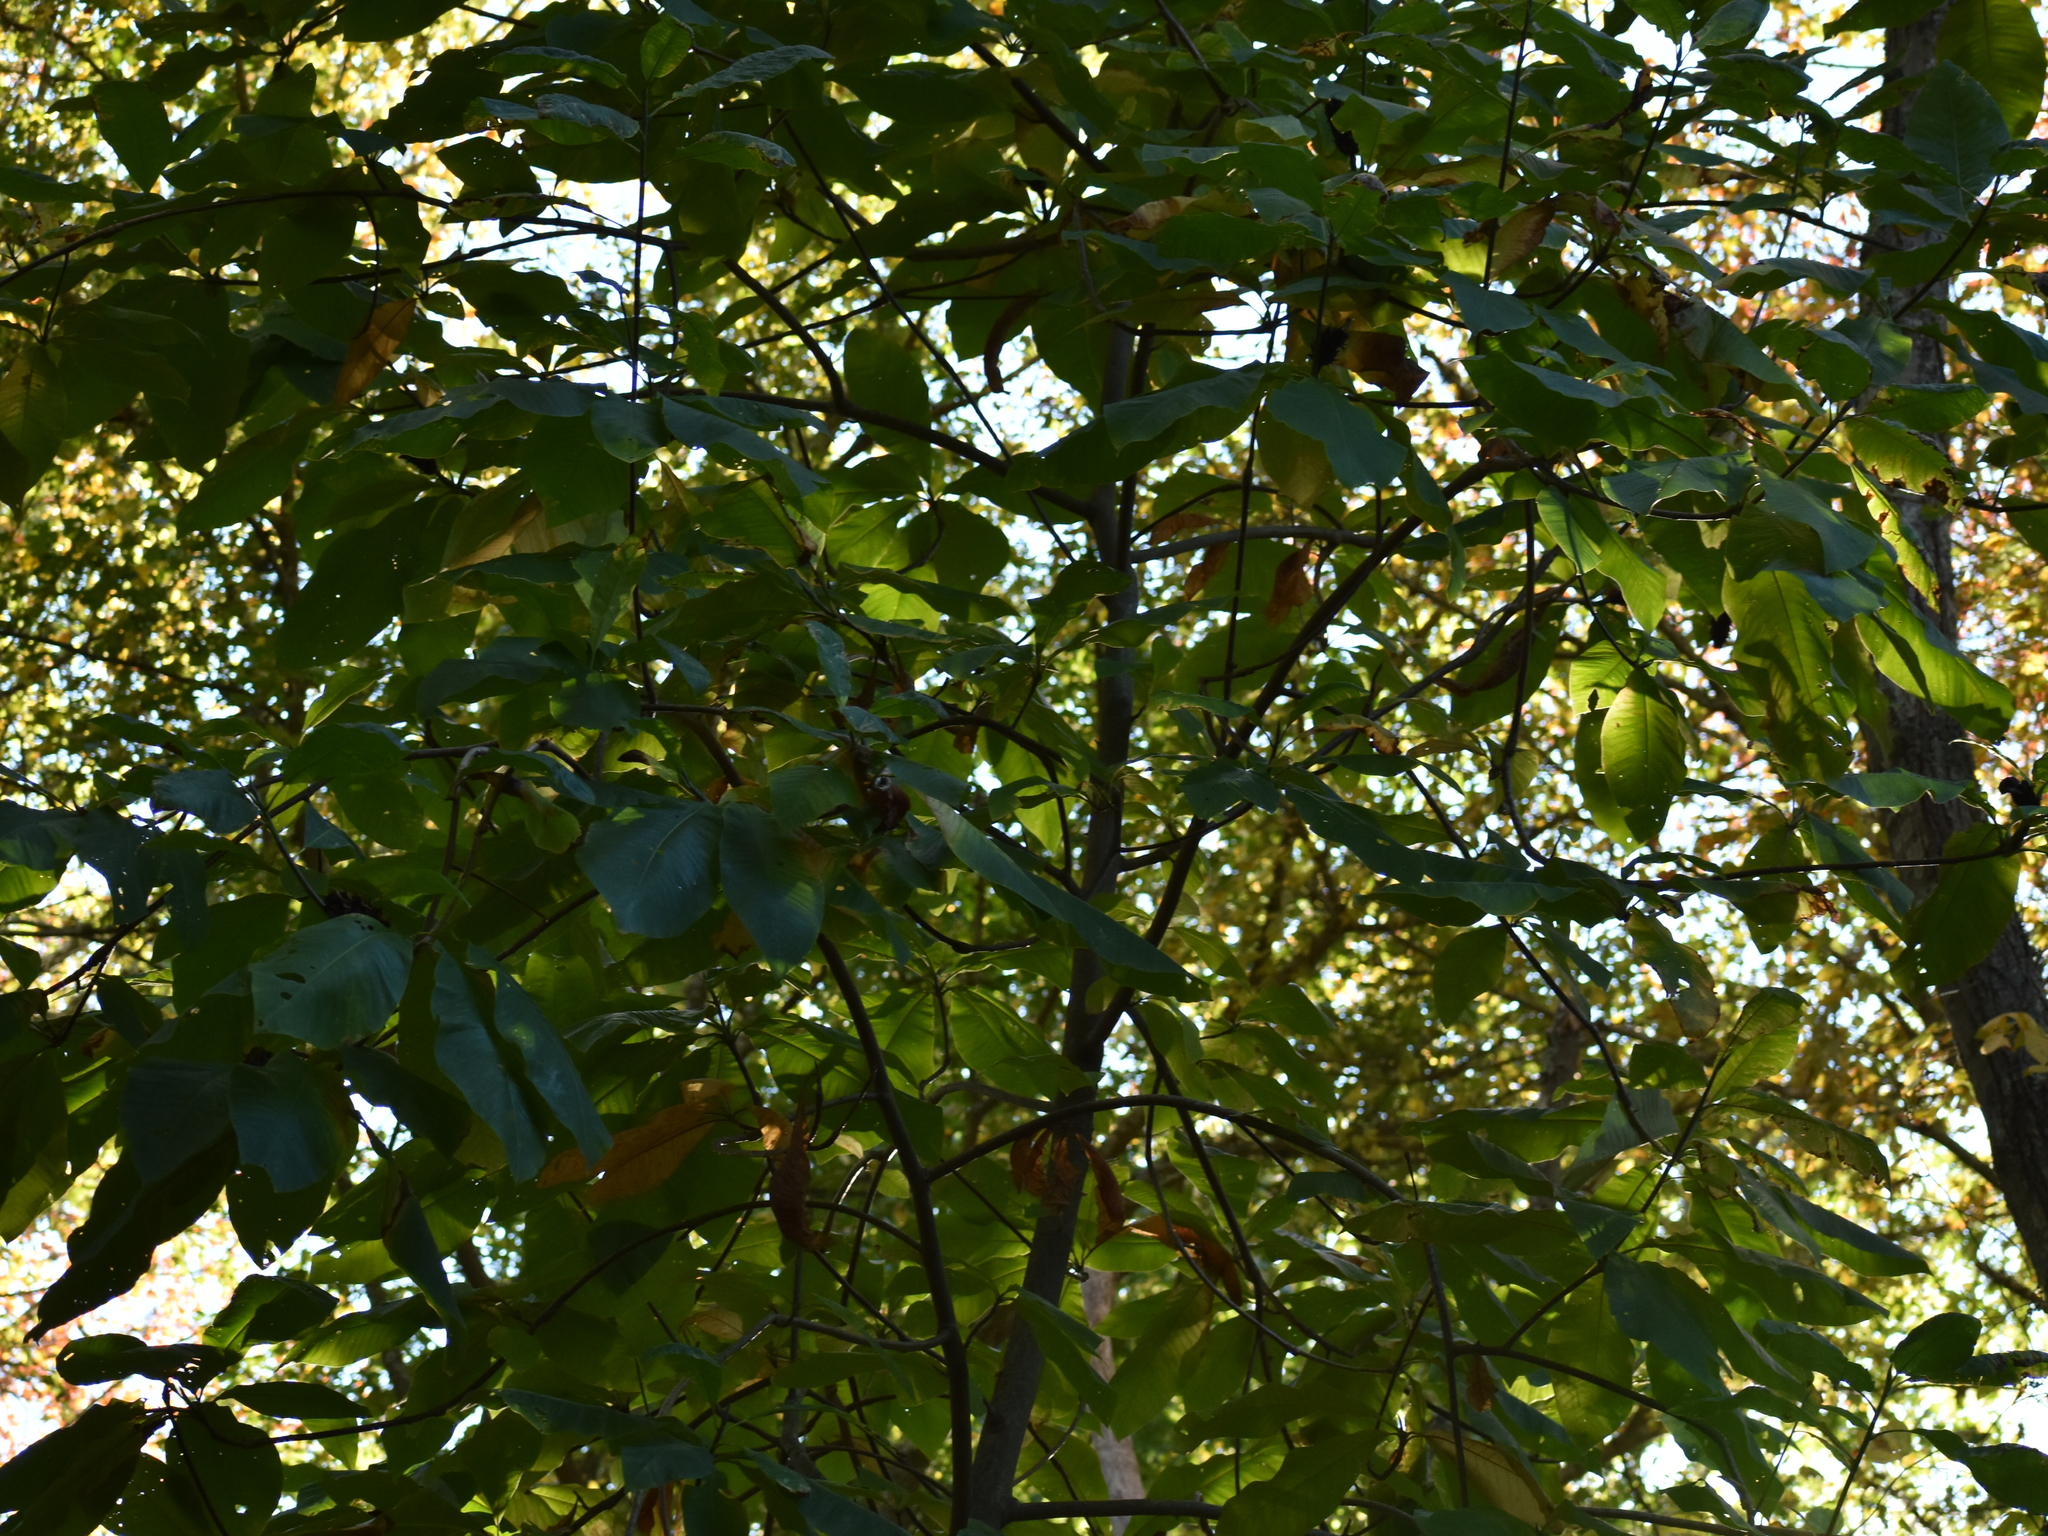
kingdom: Plantae
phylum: Tracheophyta
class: Magnoliopsida
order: Magnoliales
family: Magnoliaceae
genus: Magnolia
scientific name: Magnolia tripetala
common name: Umbrella magnolia
